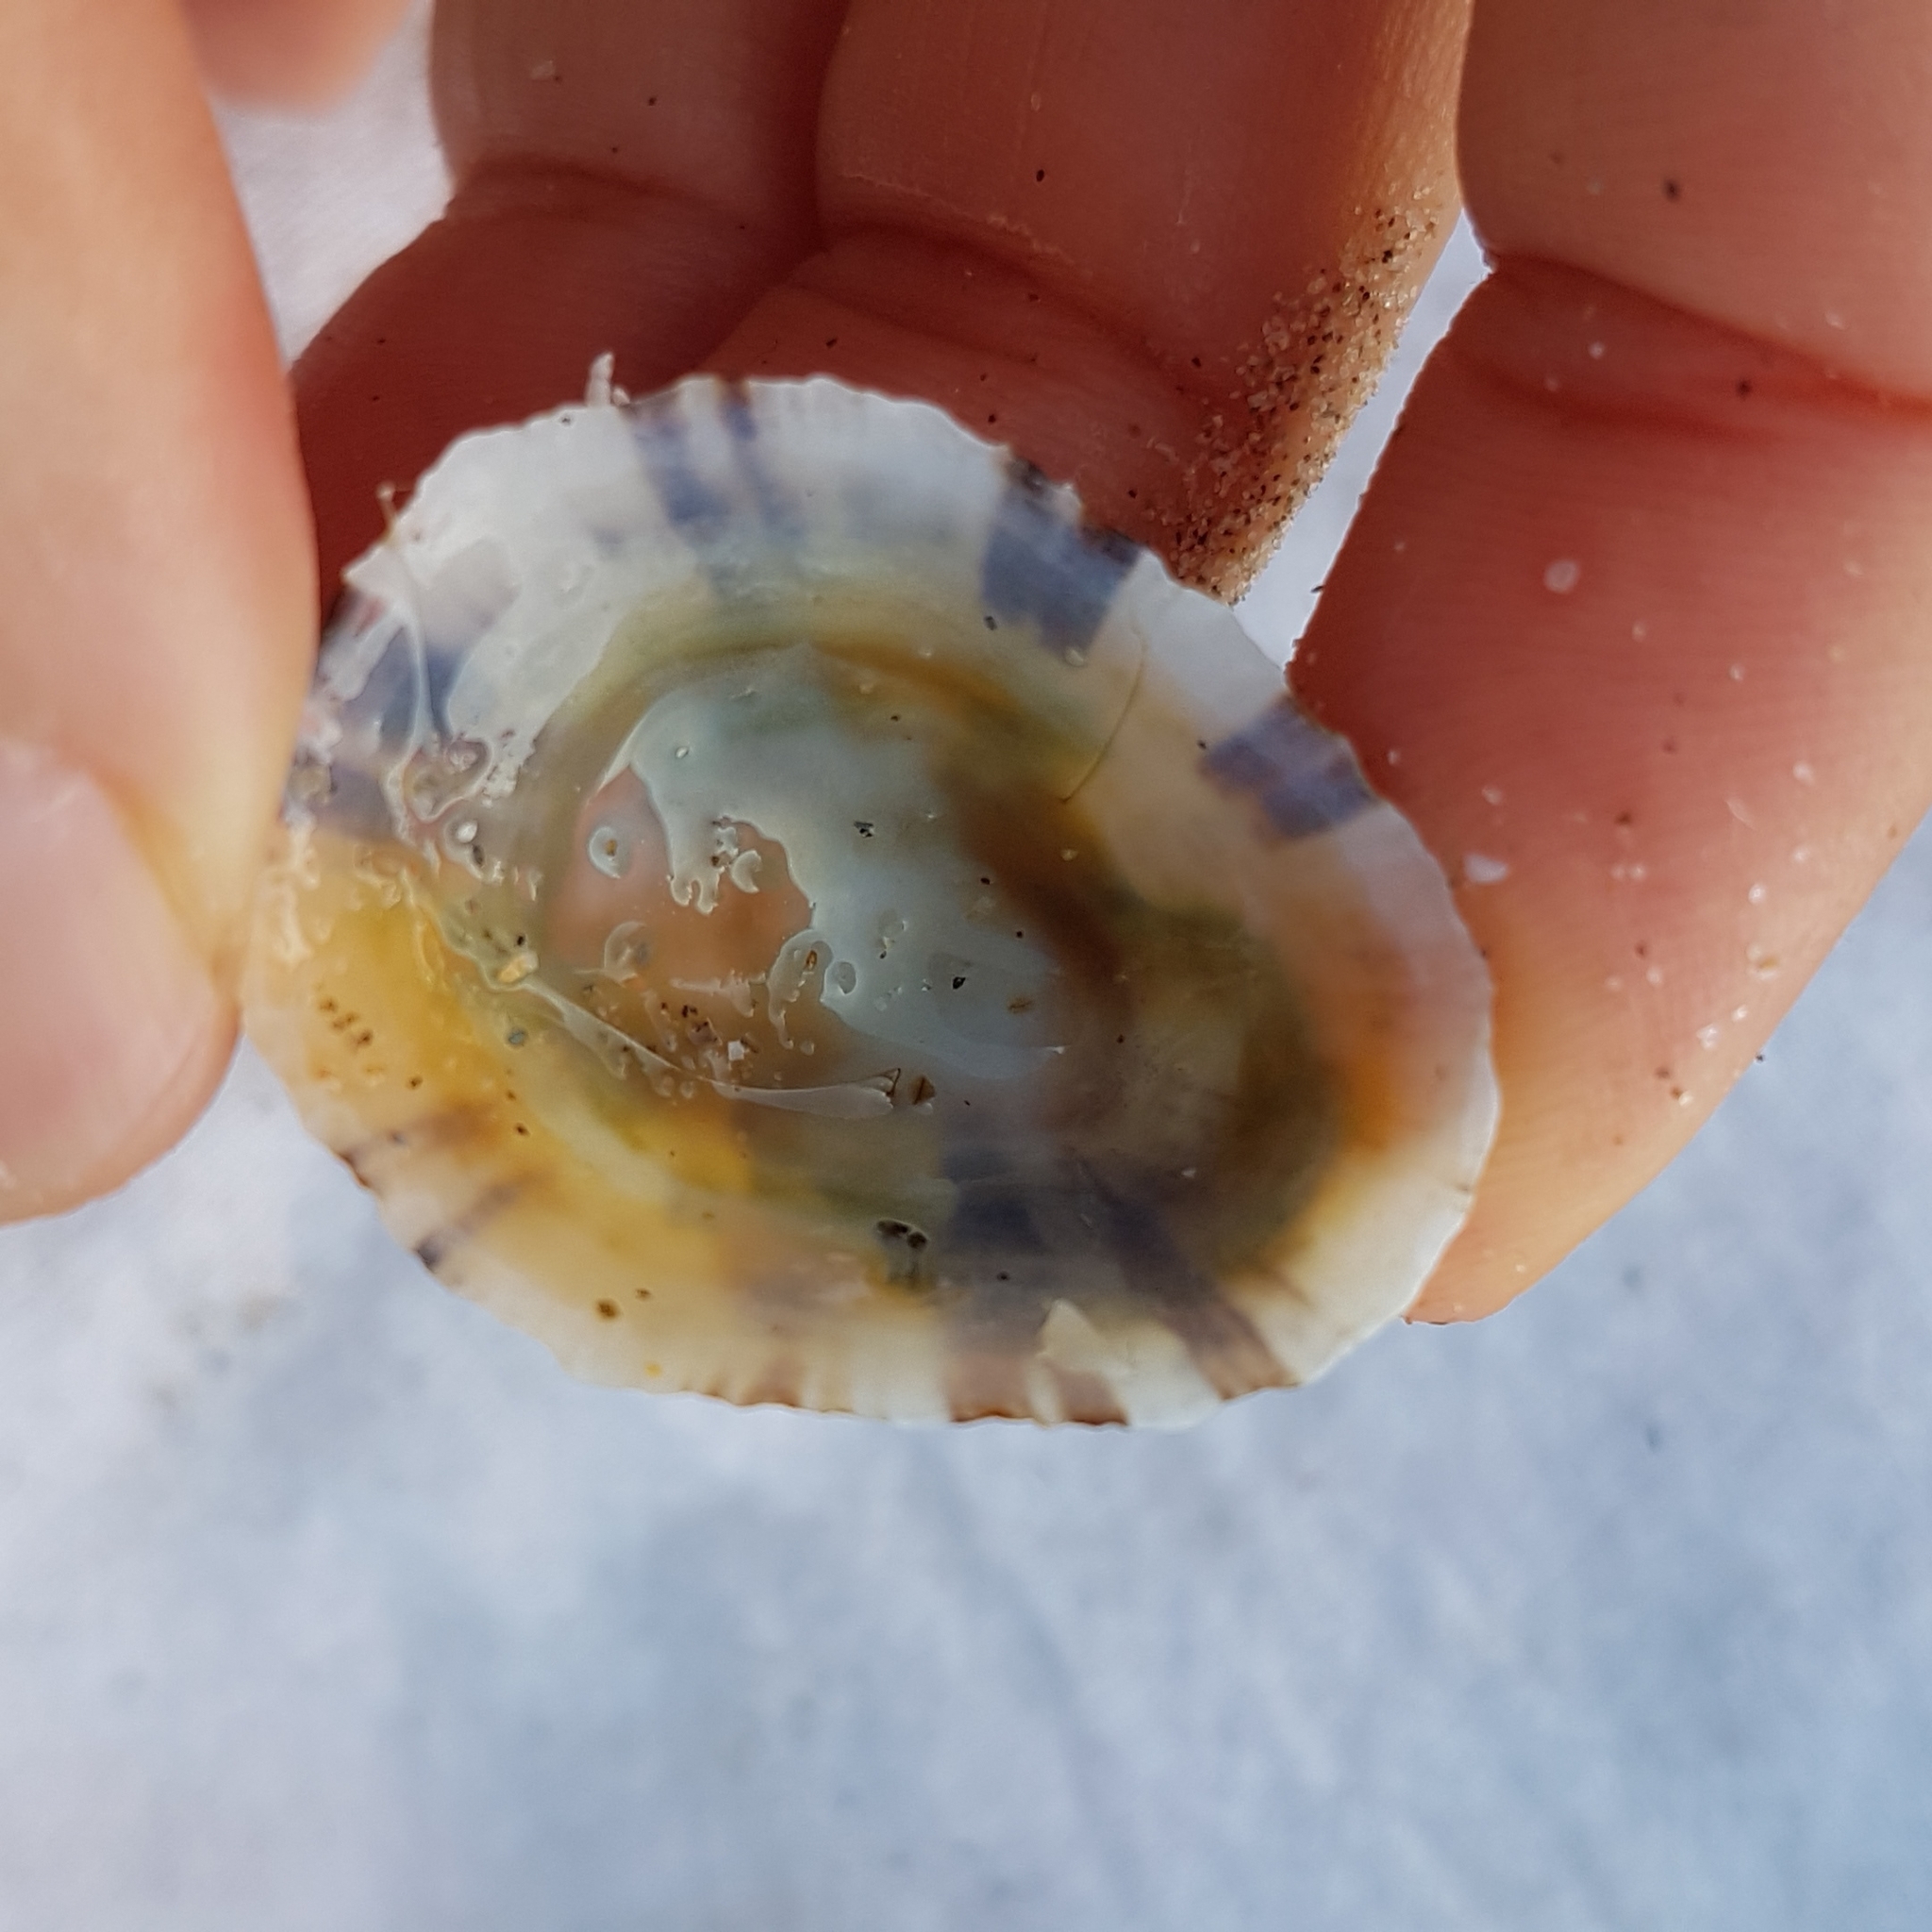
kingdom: Animalia
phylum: Mollusca
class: Gastropoda
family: Patellidae
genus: Patella
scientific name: Patella ulyssiponensis
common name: China limpet
